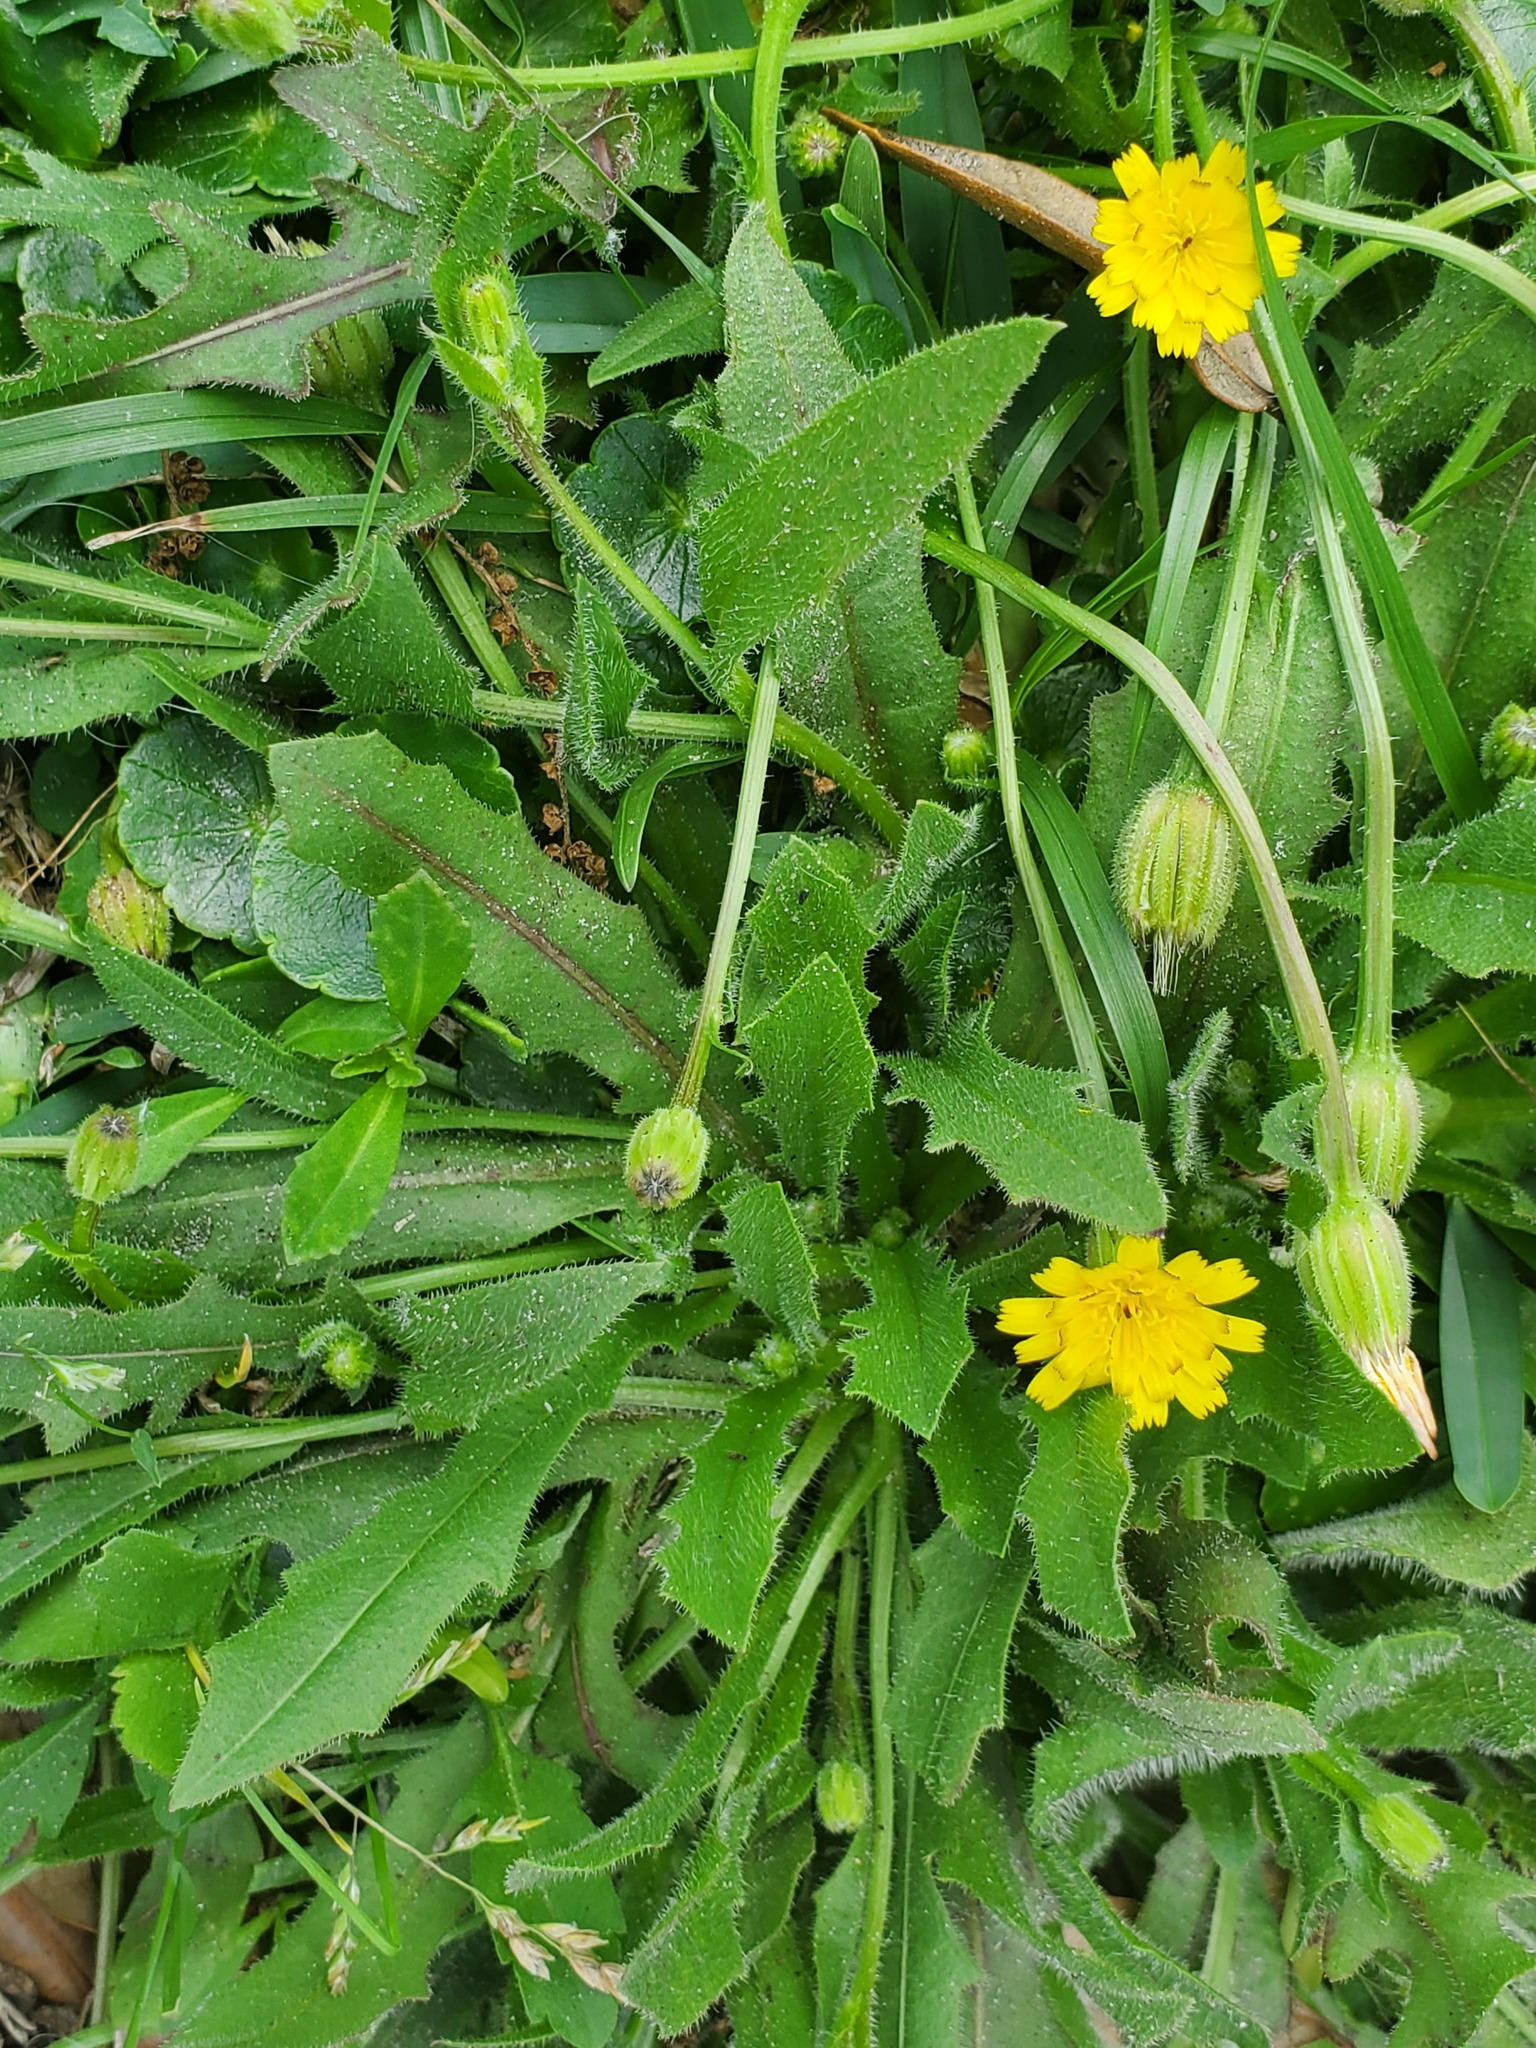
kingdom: Plantae
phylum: Tracheophyta
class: Magnoliopsida
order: Asterales
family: Asteraceae
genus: Hedypnois
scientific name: Hedypnois rhagadioloides
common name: Cretan weed
